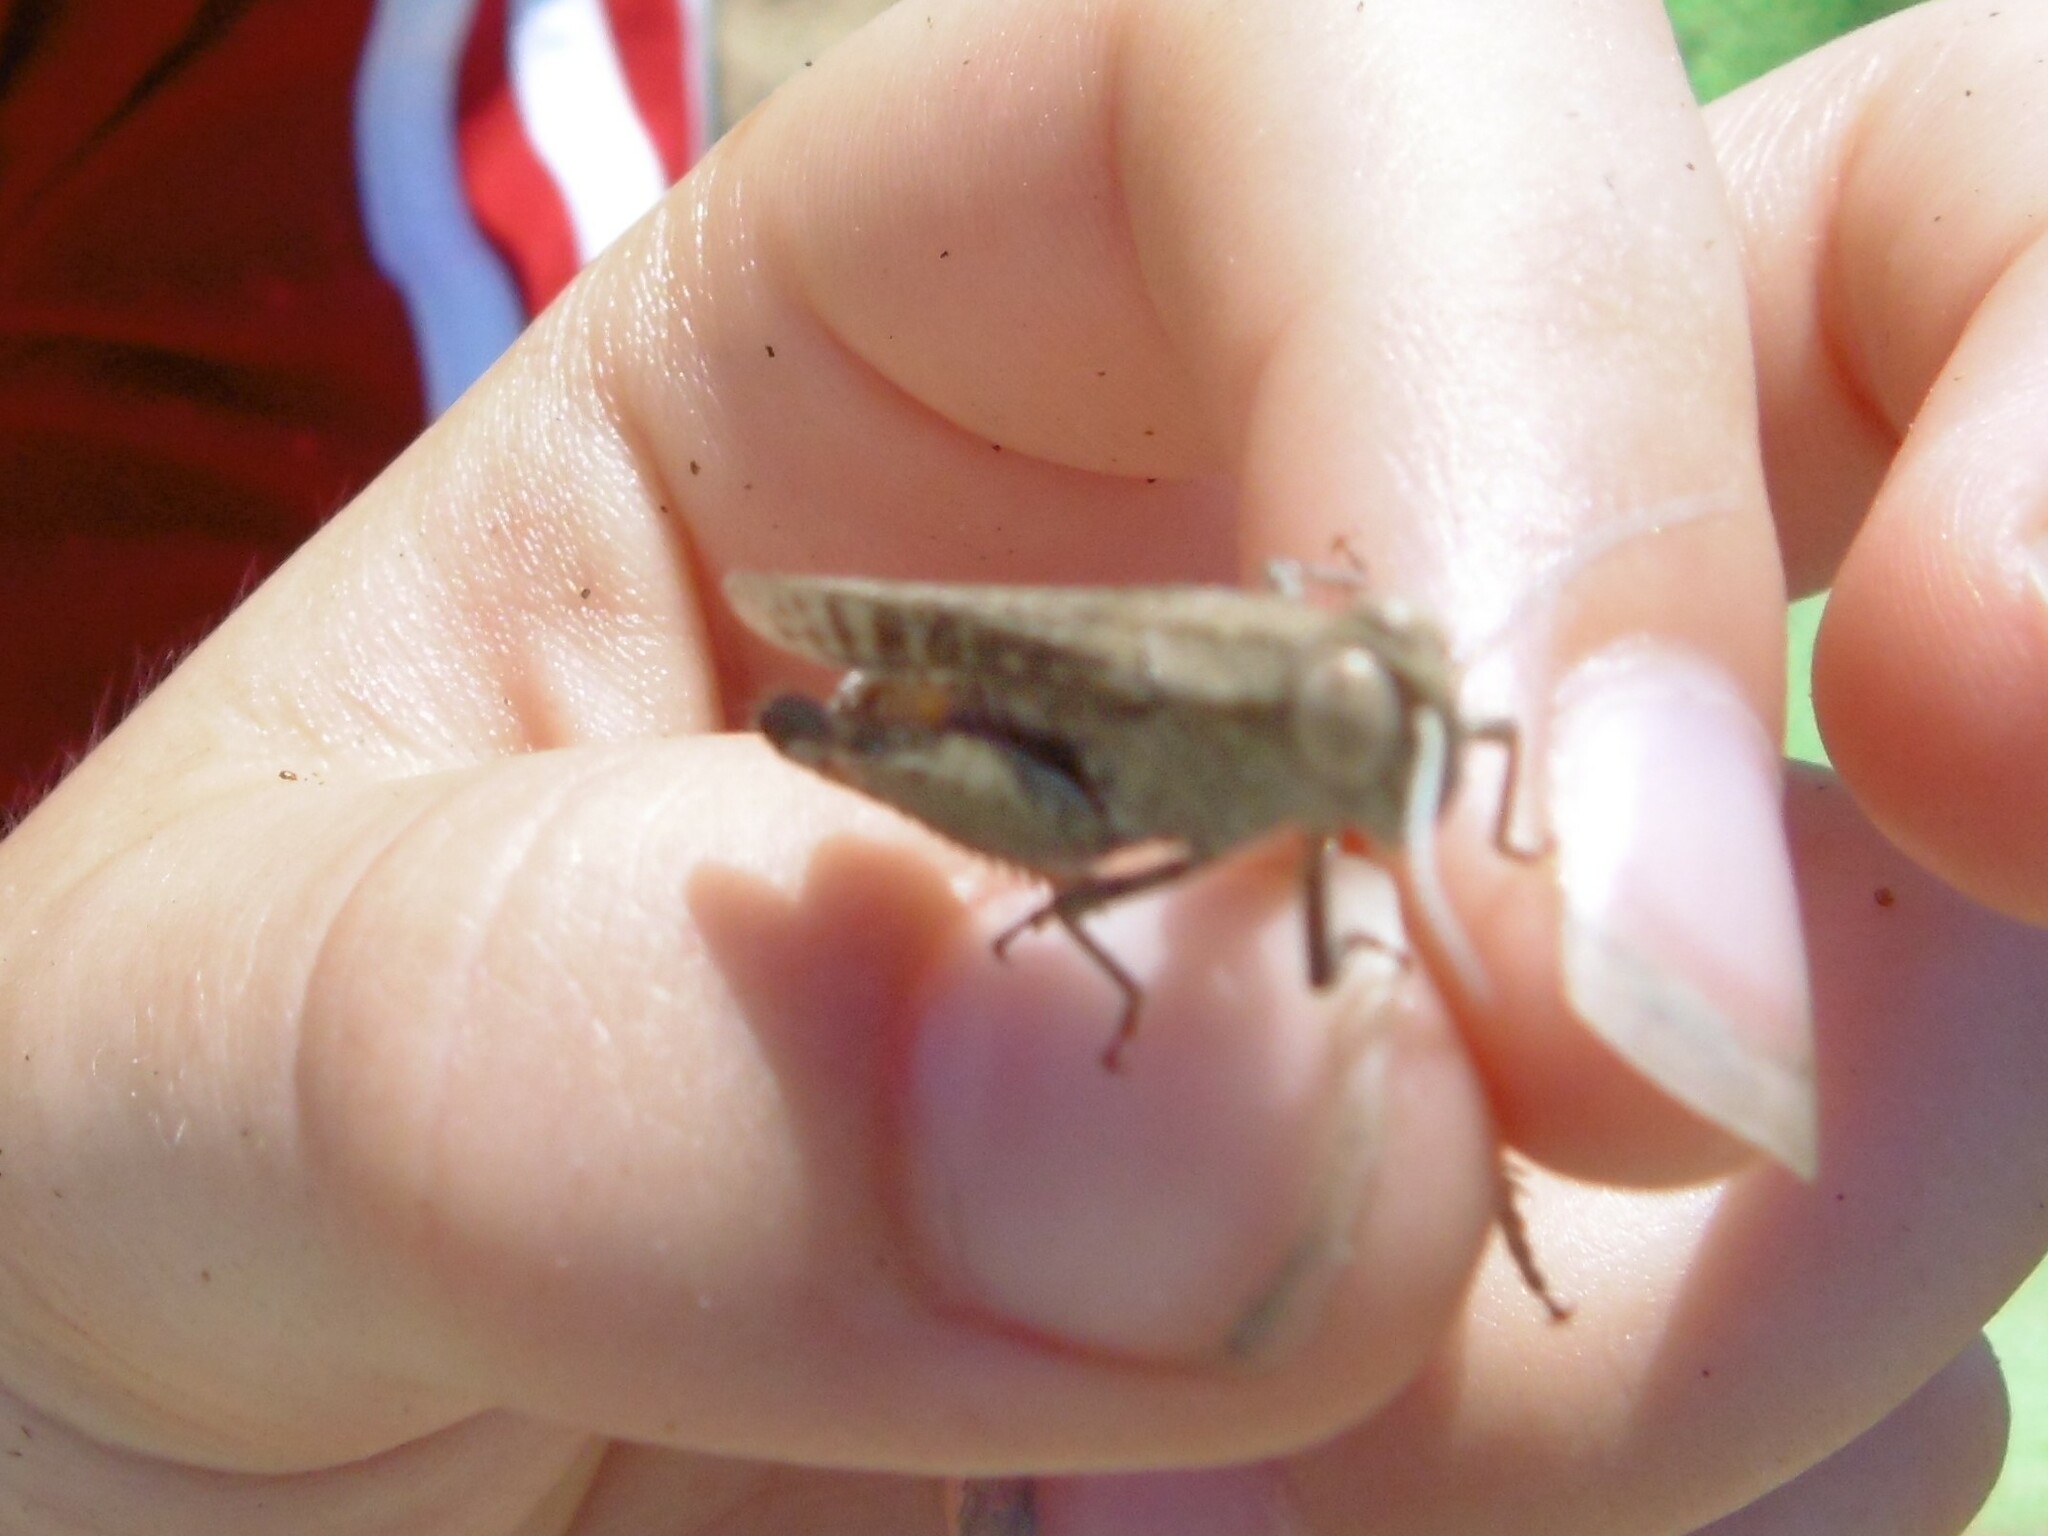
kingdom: Animalia
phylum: Arthropoda
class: Insecta
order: Orthoptera
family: Acrididae
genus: Calliptamus
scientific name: Calliptamus barbarus
